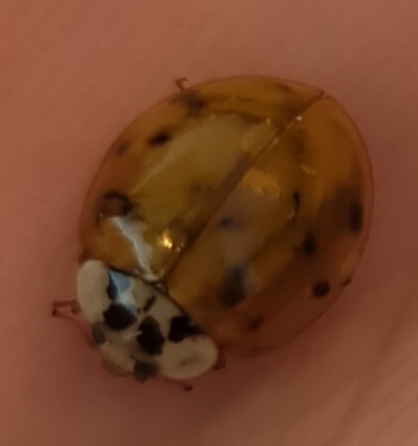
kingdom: Animalia
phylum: Arthropoda
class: Insecta
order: Coleoptera
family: Coccinellidae
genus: Harmonia
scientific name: Harmonia axyridis
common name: Harlequin ladybird
